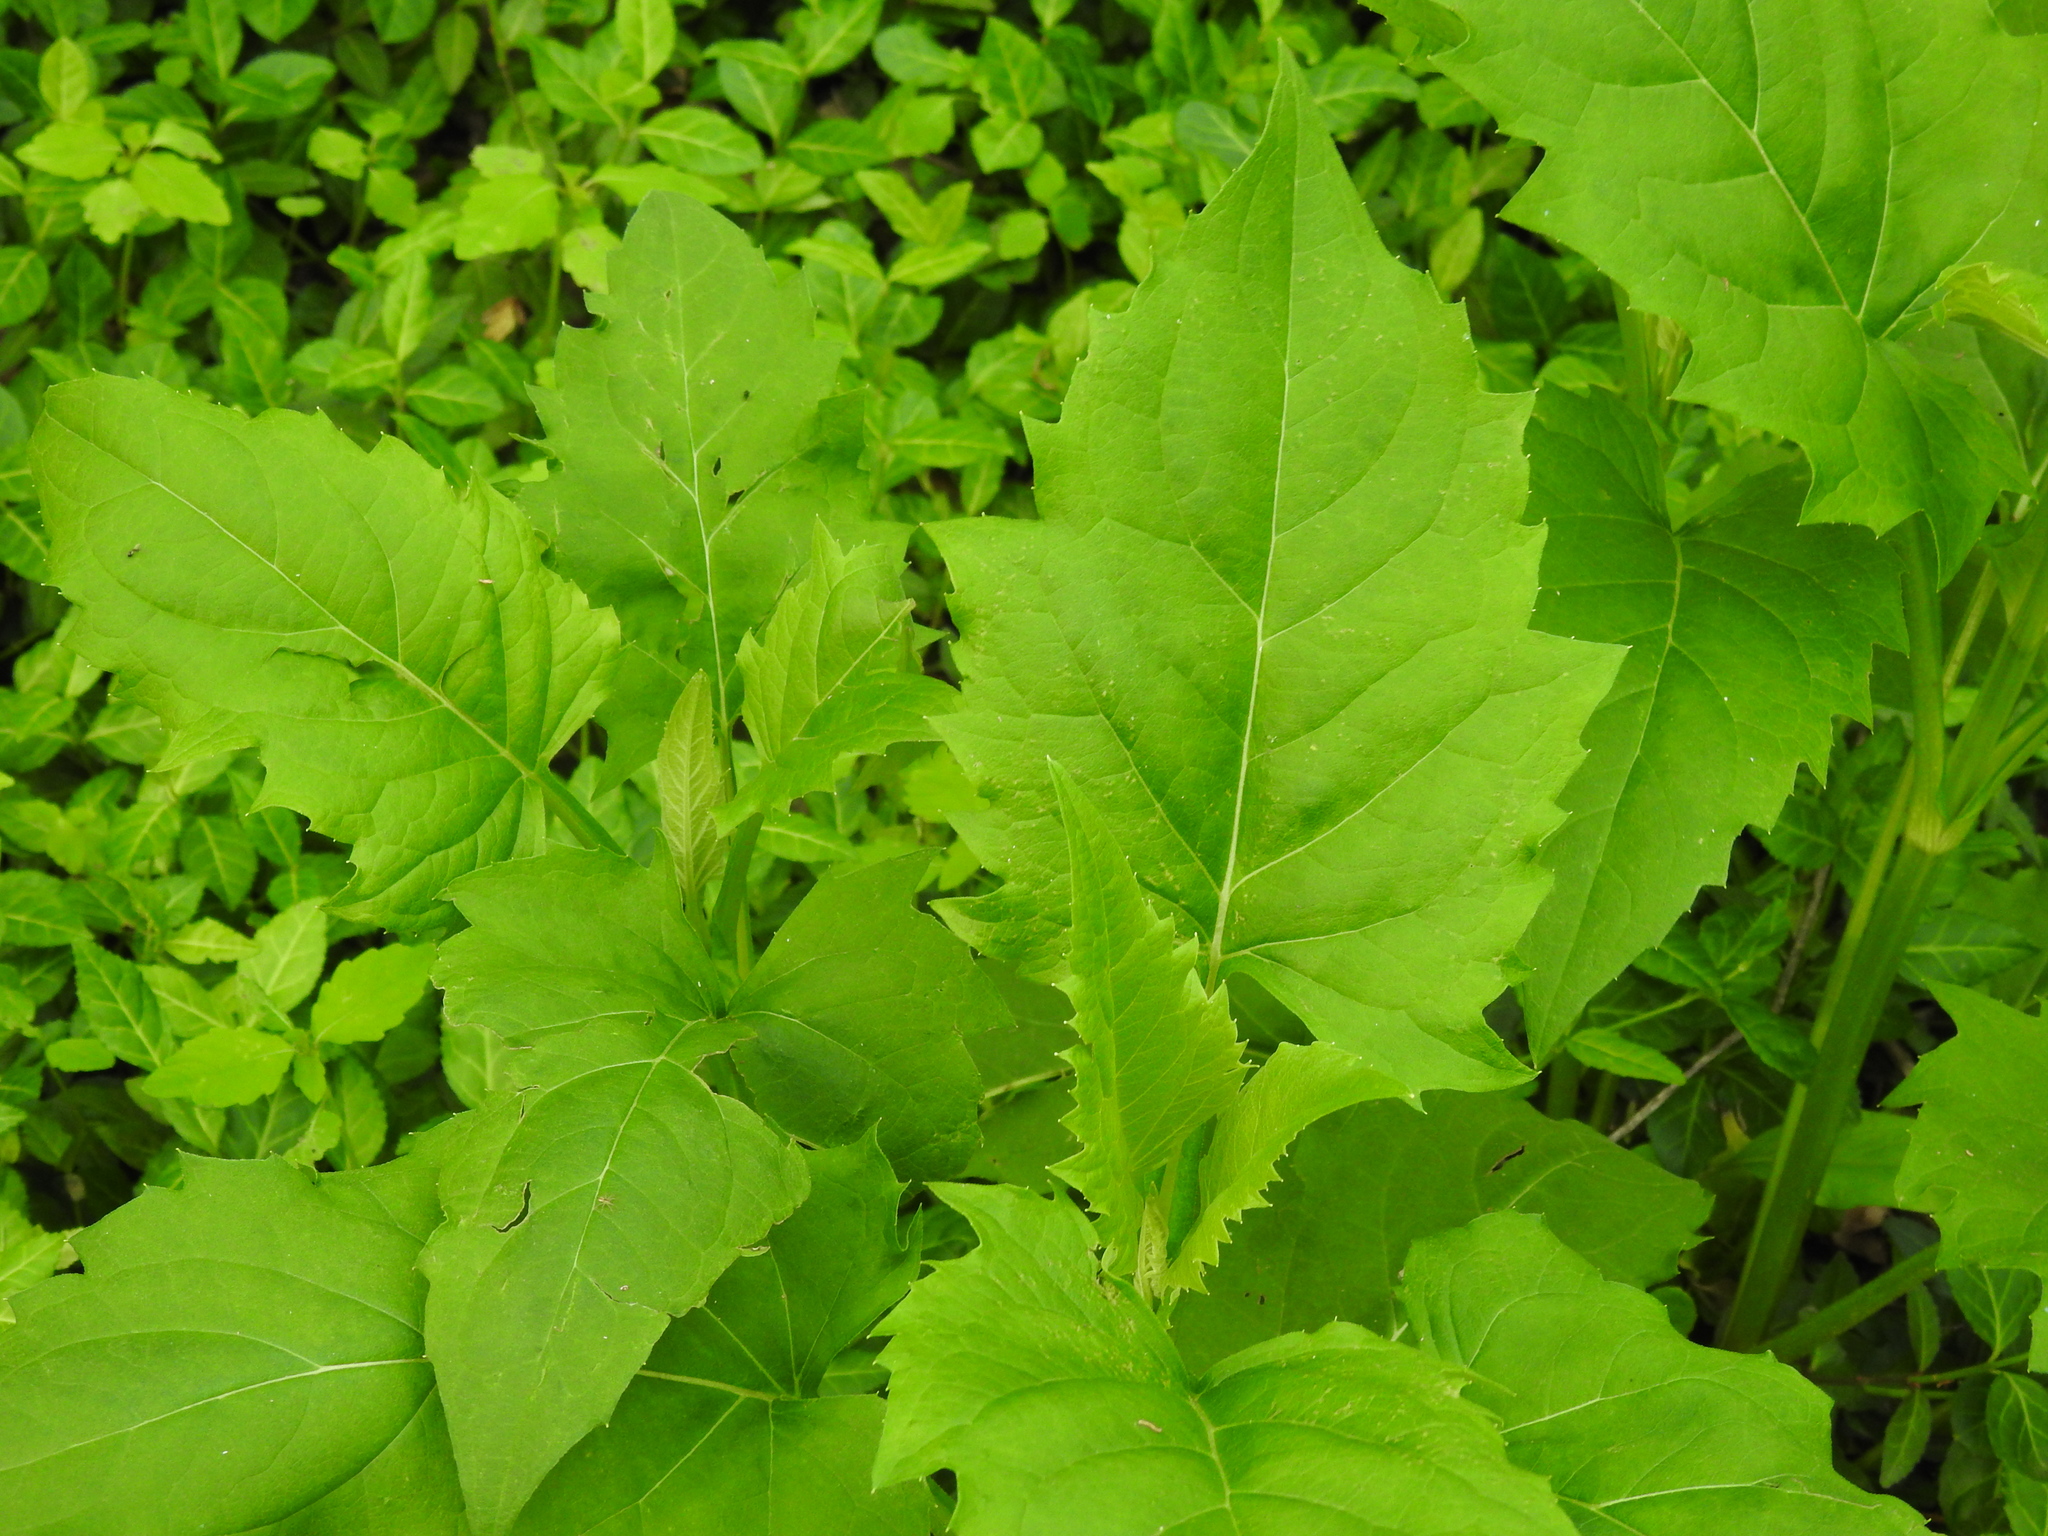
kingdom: Plantae
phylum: Tracheophyta
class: Magnoliopsida
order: Asterales
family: Asteraceae
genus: Silphium
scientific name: Silphium perfoliatum
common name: Cup-plant
